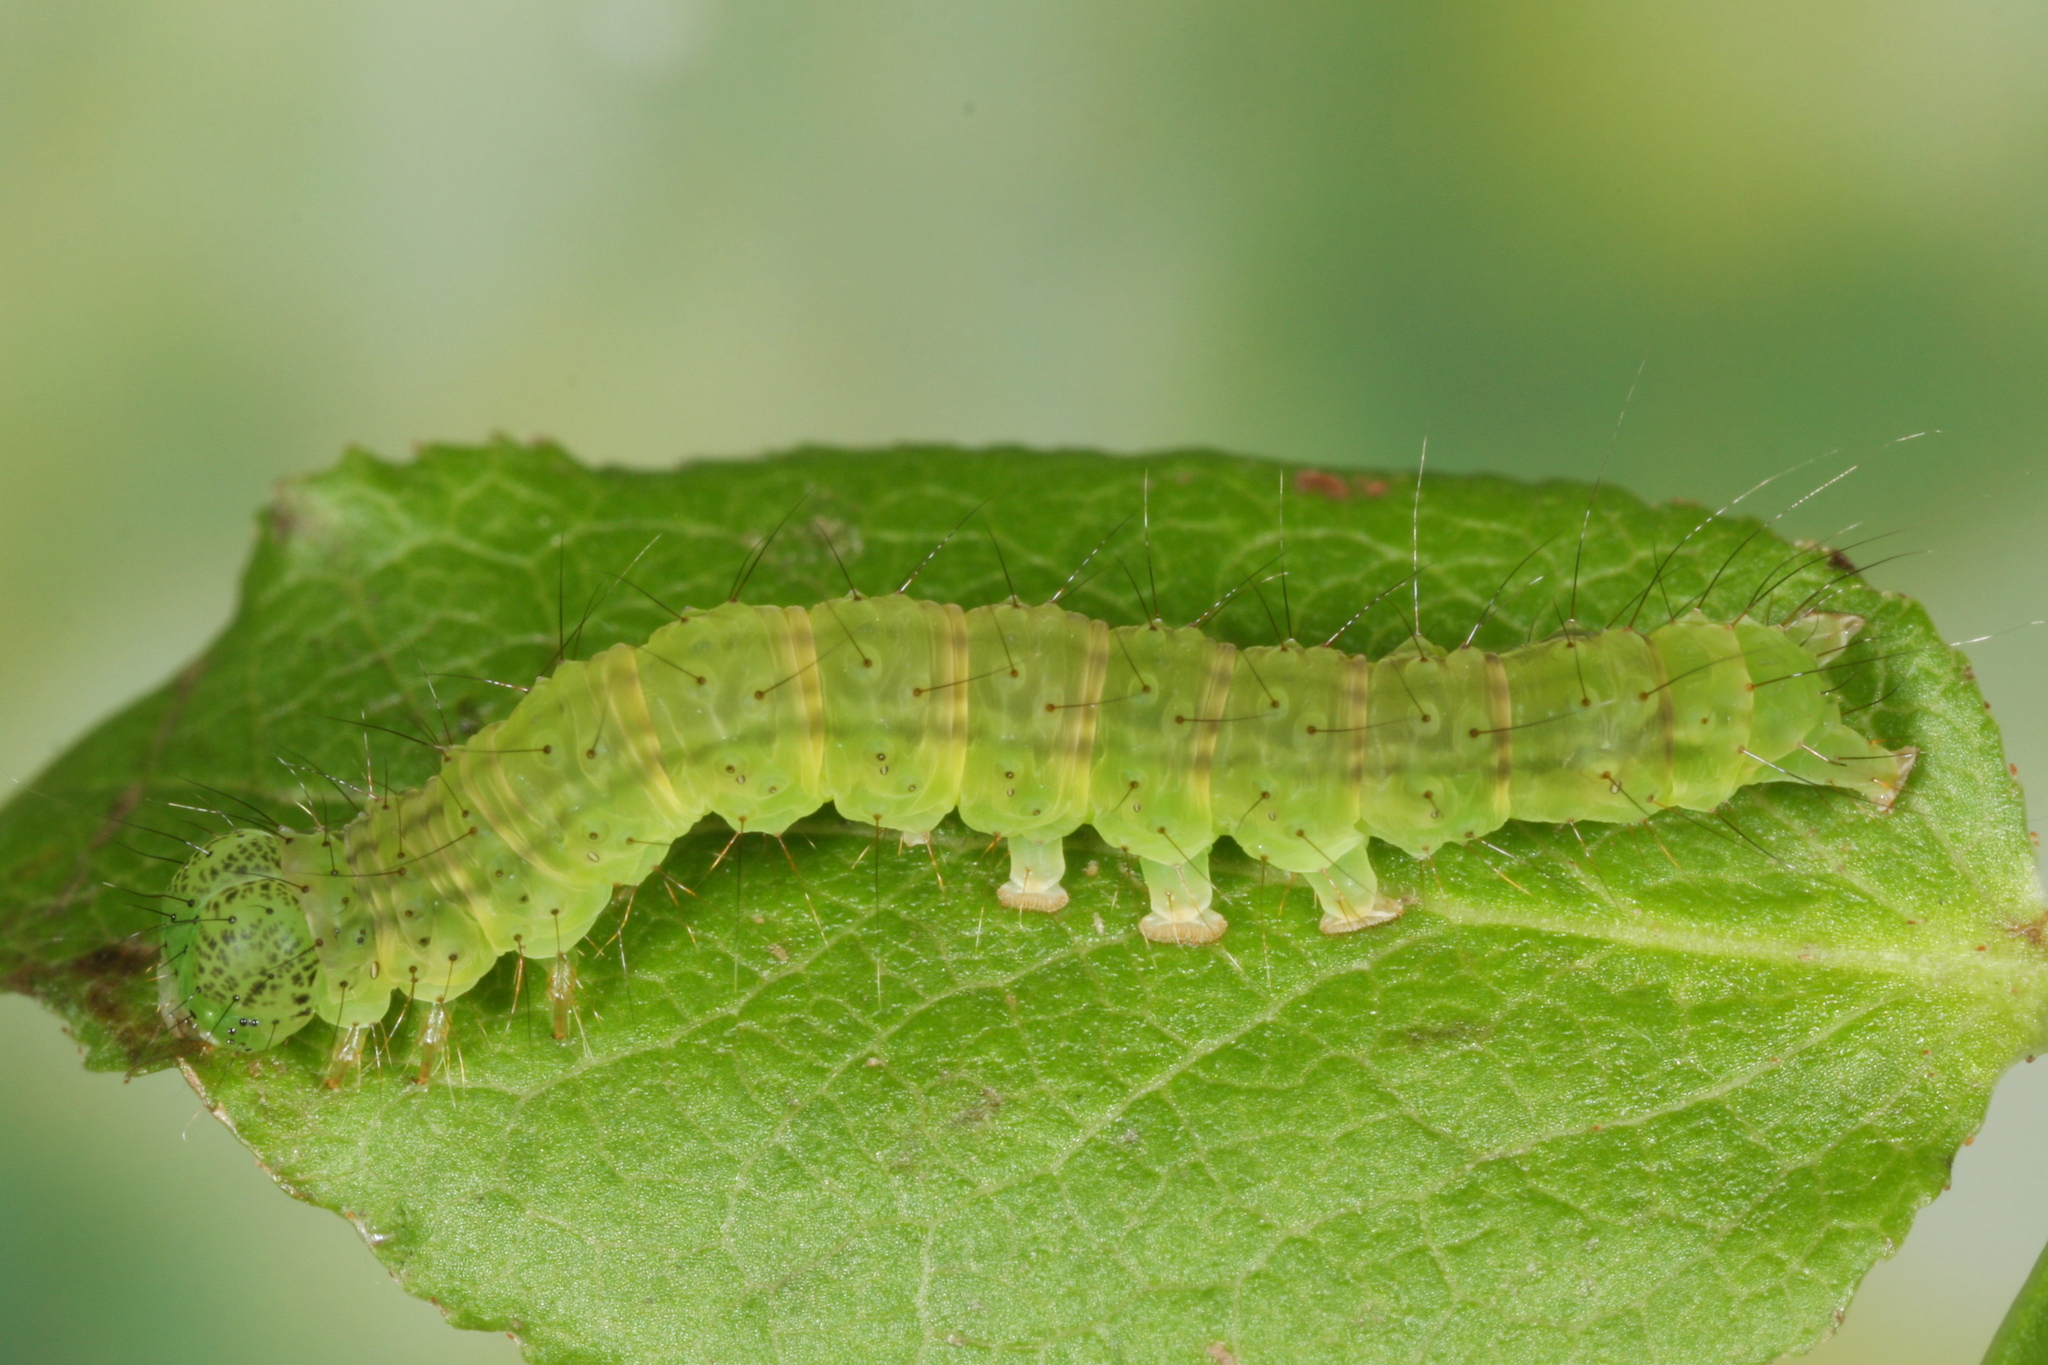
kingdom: Animalia
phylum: Arthropoda
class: Insecta
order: Lepidoptera
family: Erebidae
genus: Hypena
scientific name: Hypena crassalis
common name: Beautiful snout
